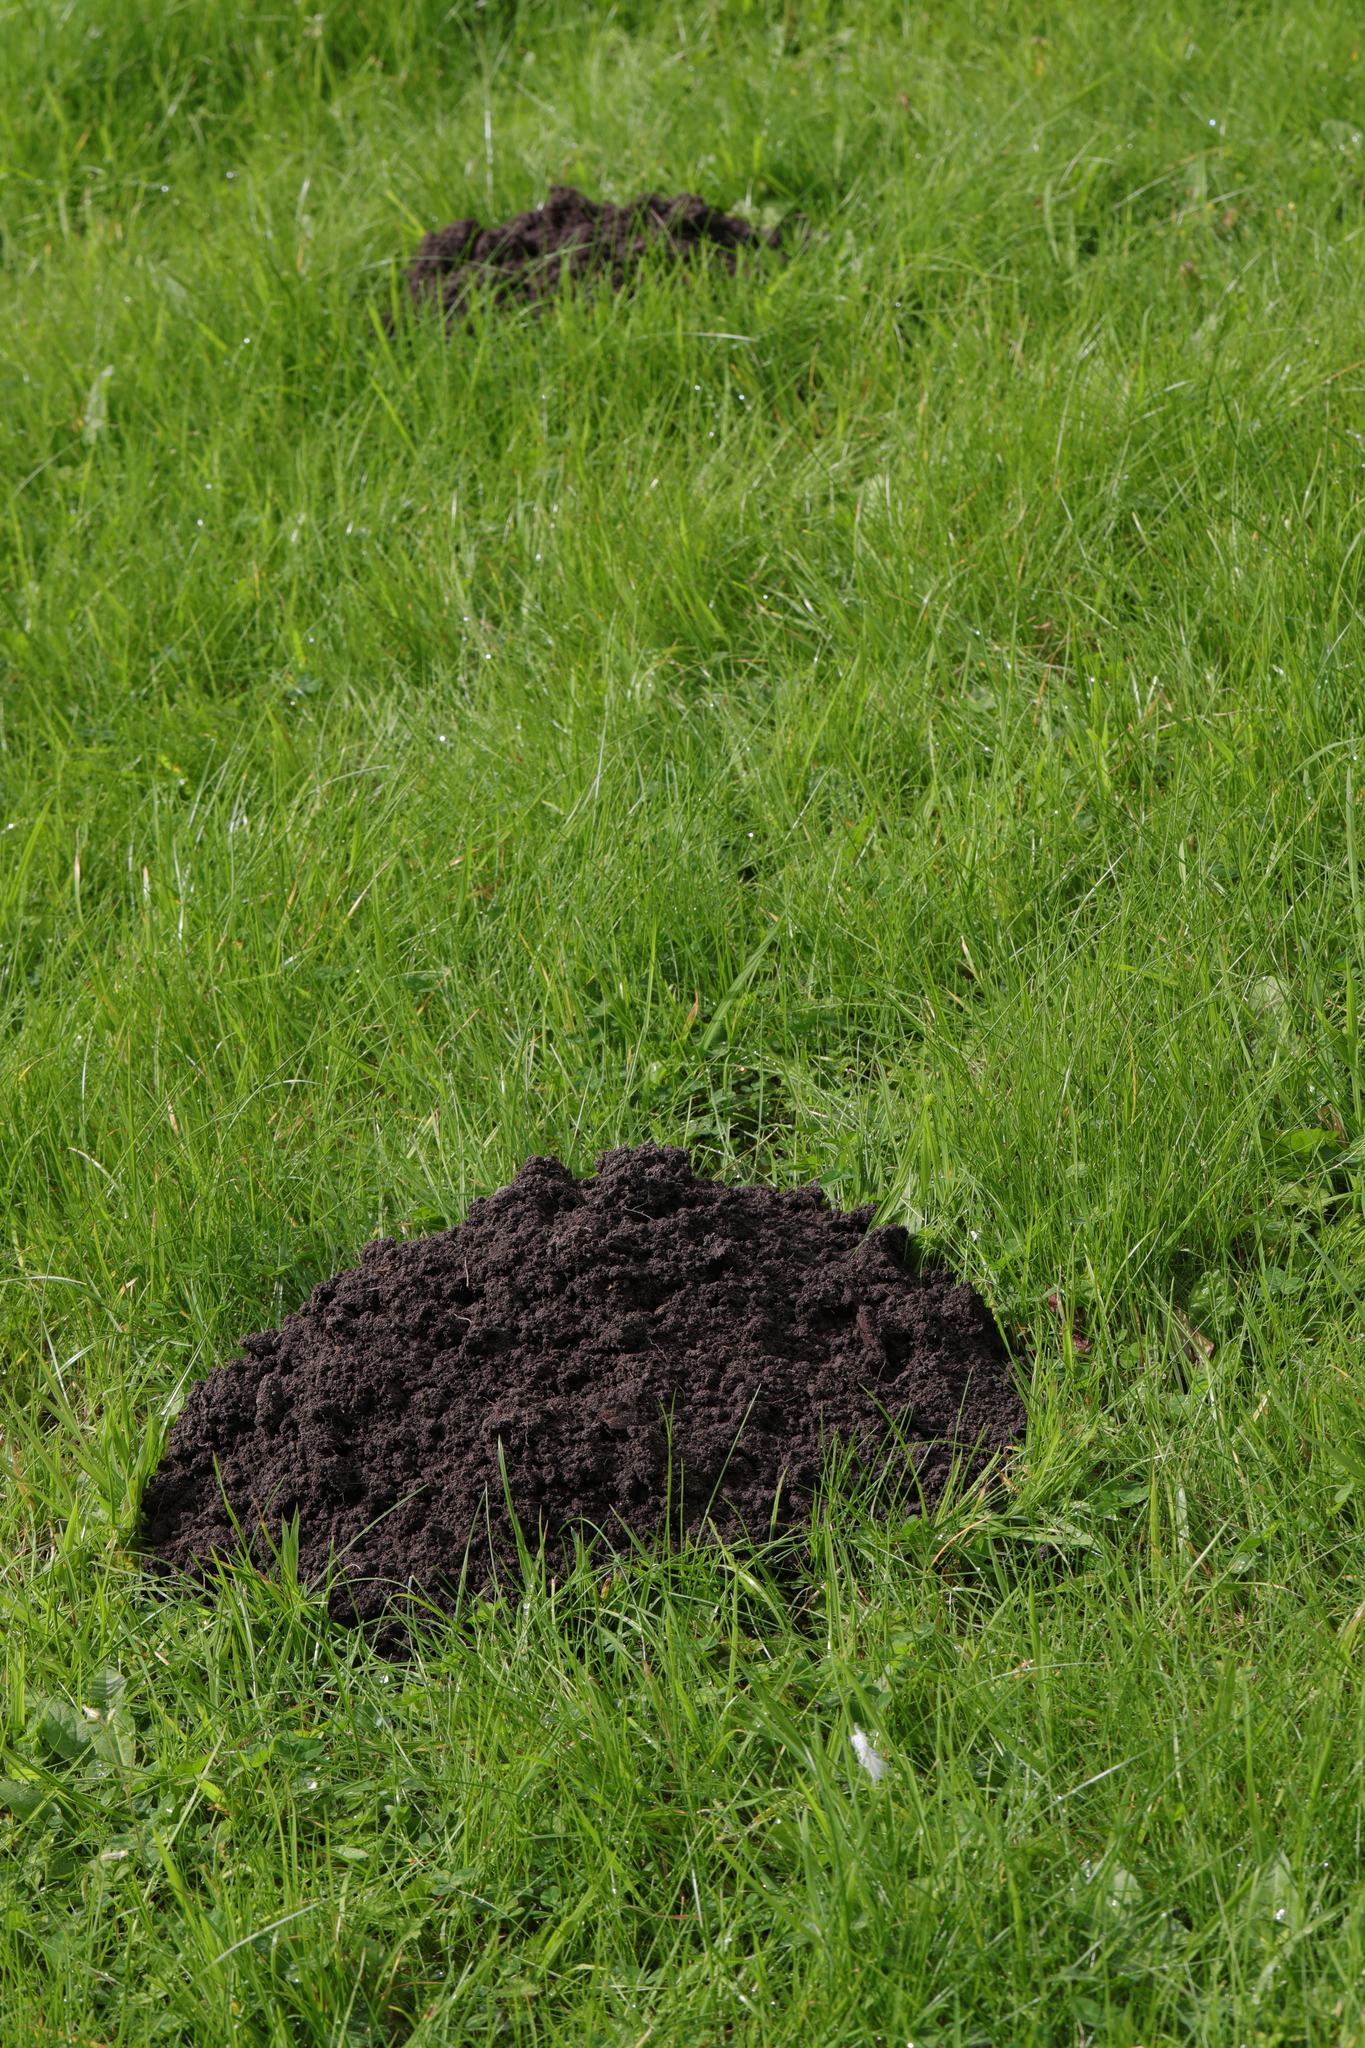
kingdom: Animalia
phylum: Chordata
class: Mammalia
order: Soricomorpha
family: Talpidae
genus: Talpa
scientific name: Talpa europaea
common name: European mole
